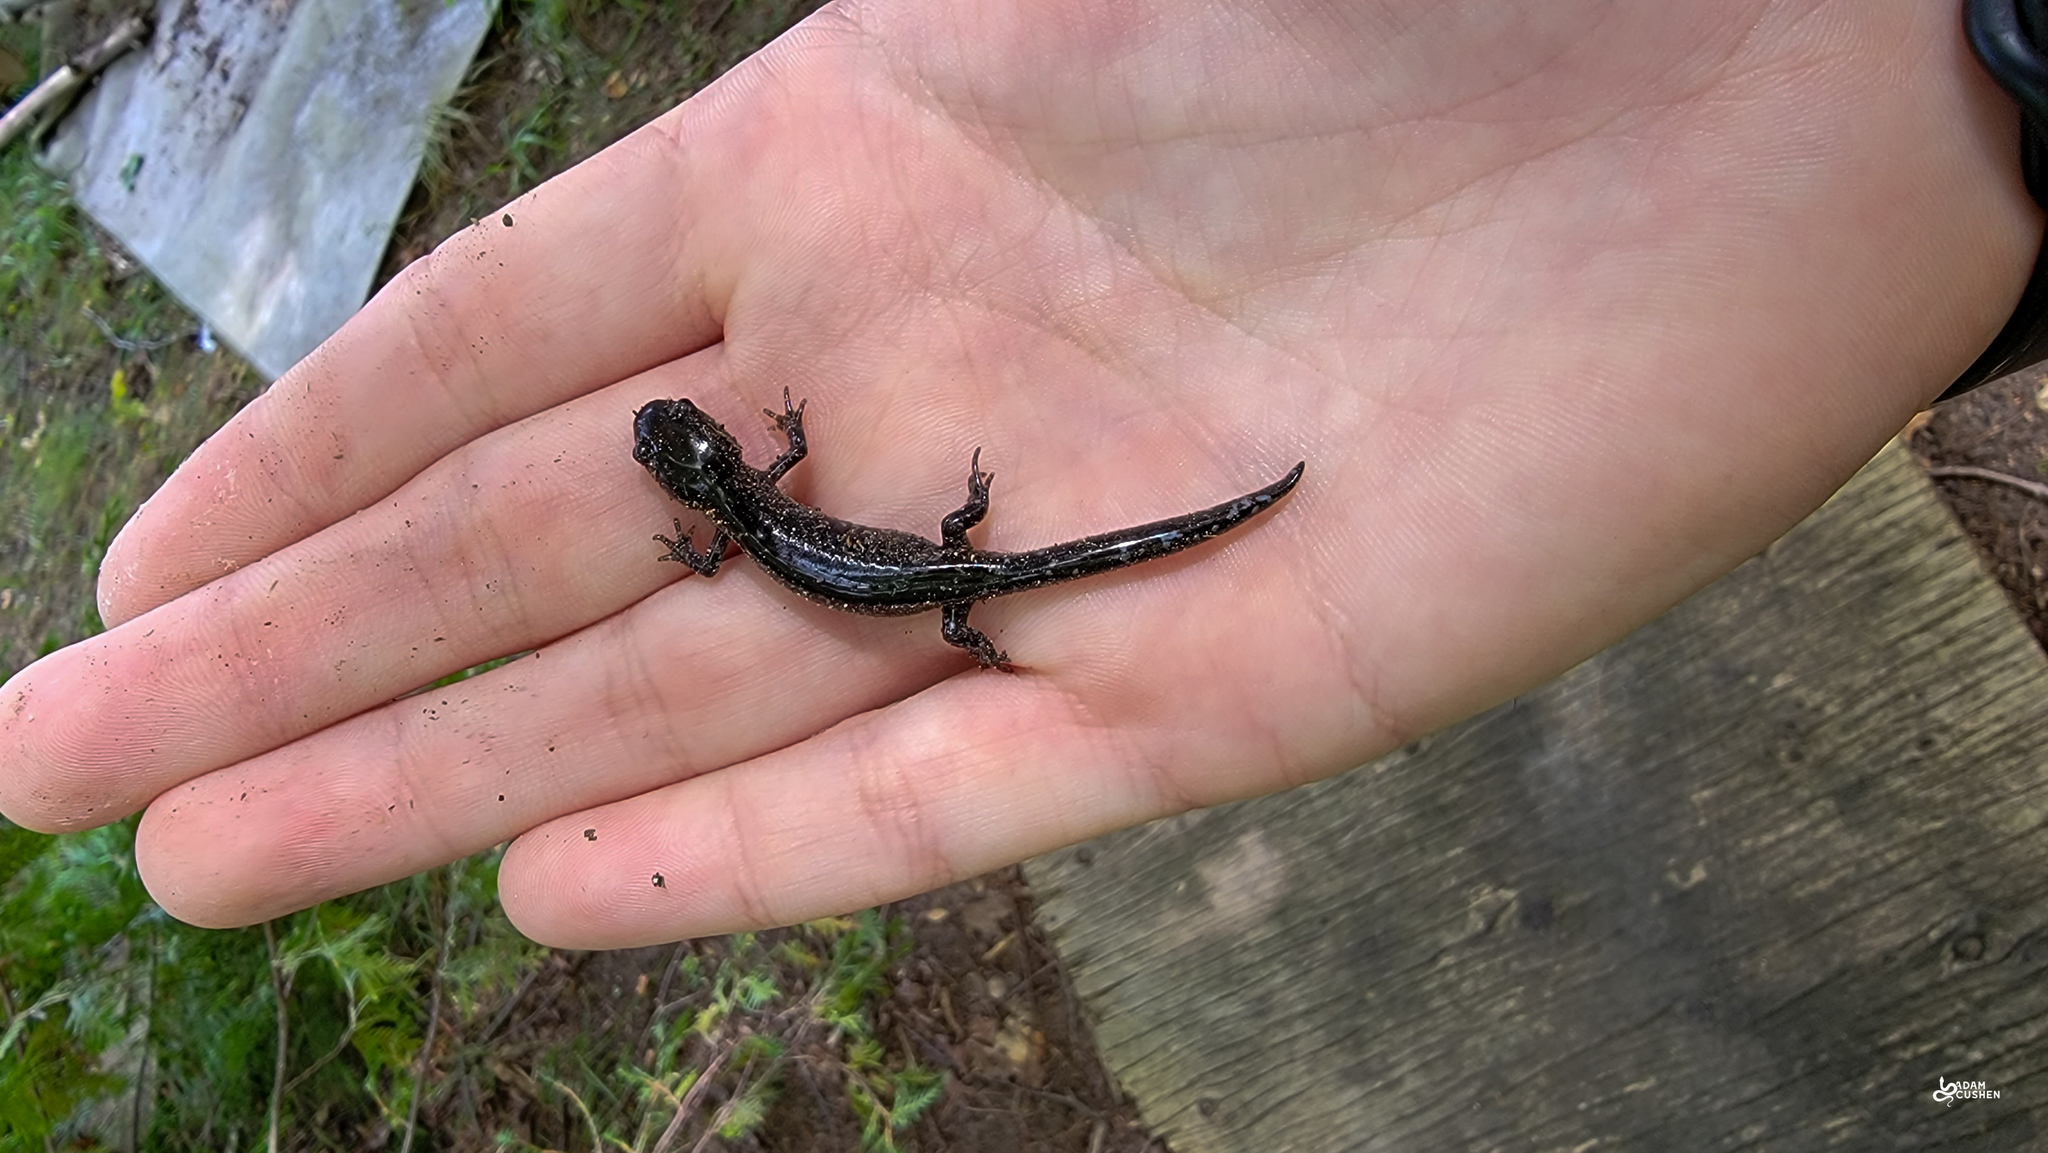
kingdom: Animalia
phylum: Chordata
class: Amphibia
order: Caudata
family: Ambystomatidae
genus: Ambystoma
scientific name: Ambystoma laterale
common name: Blue-spotted salamander
